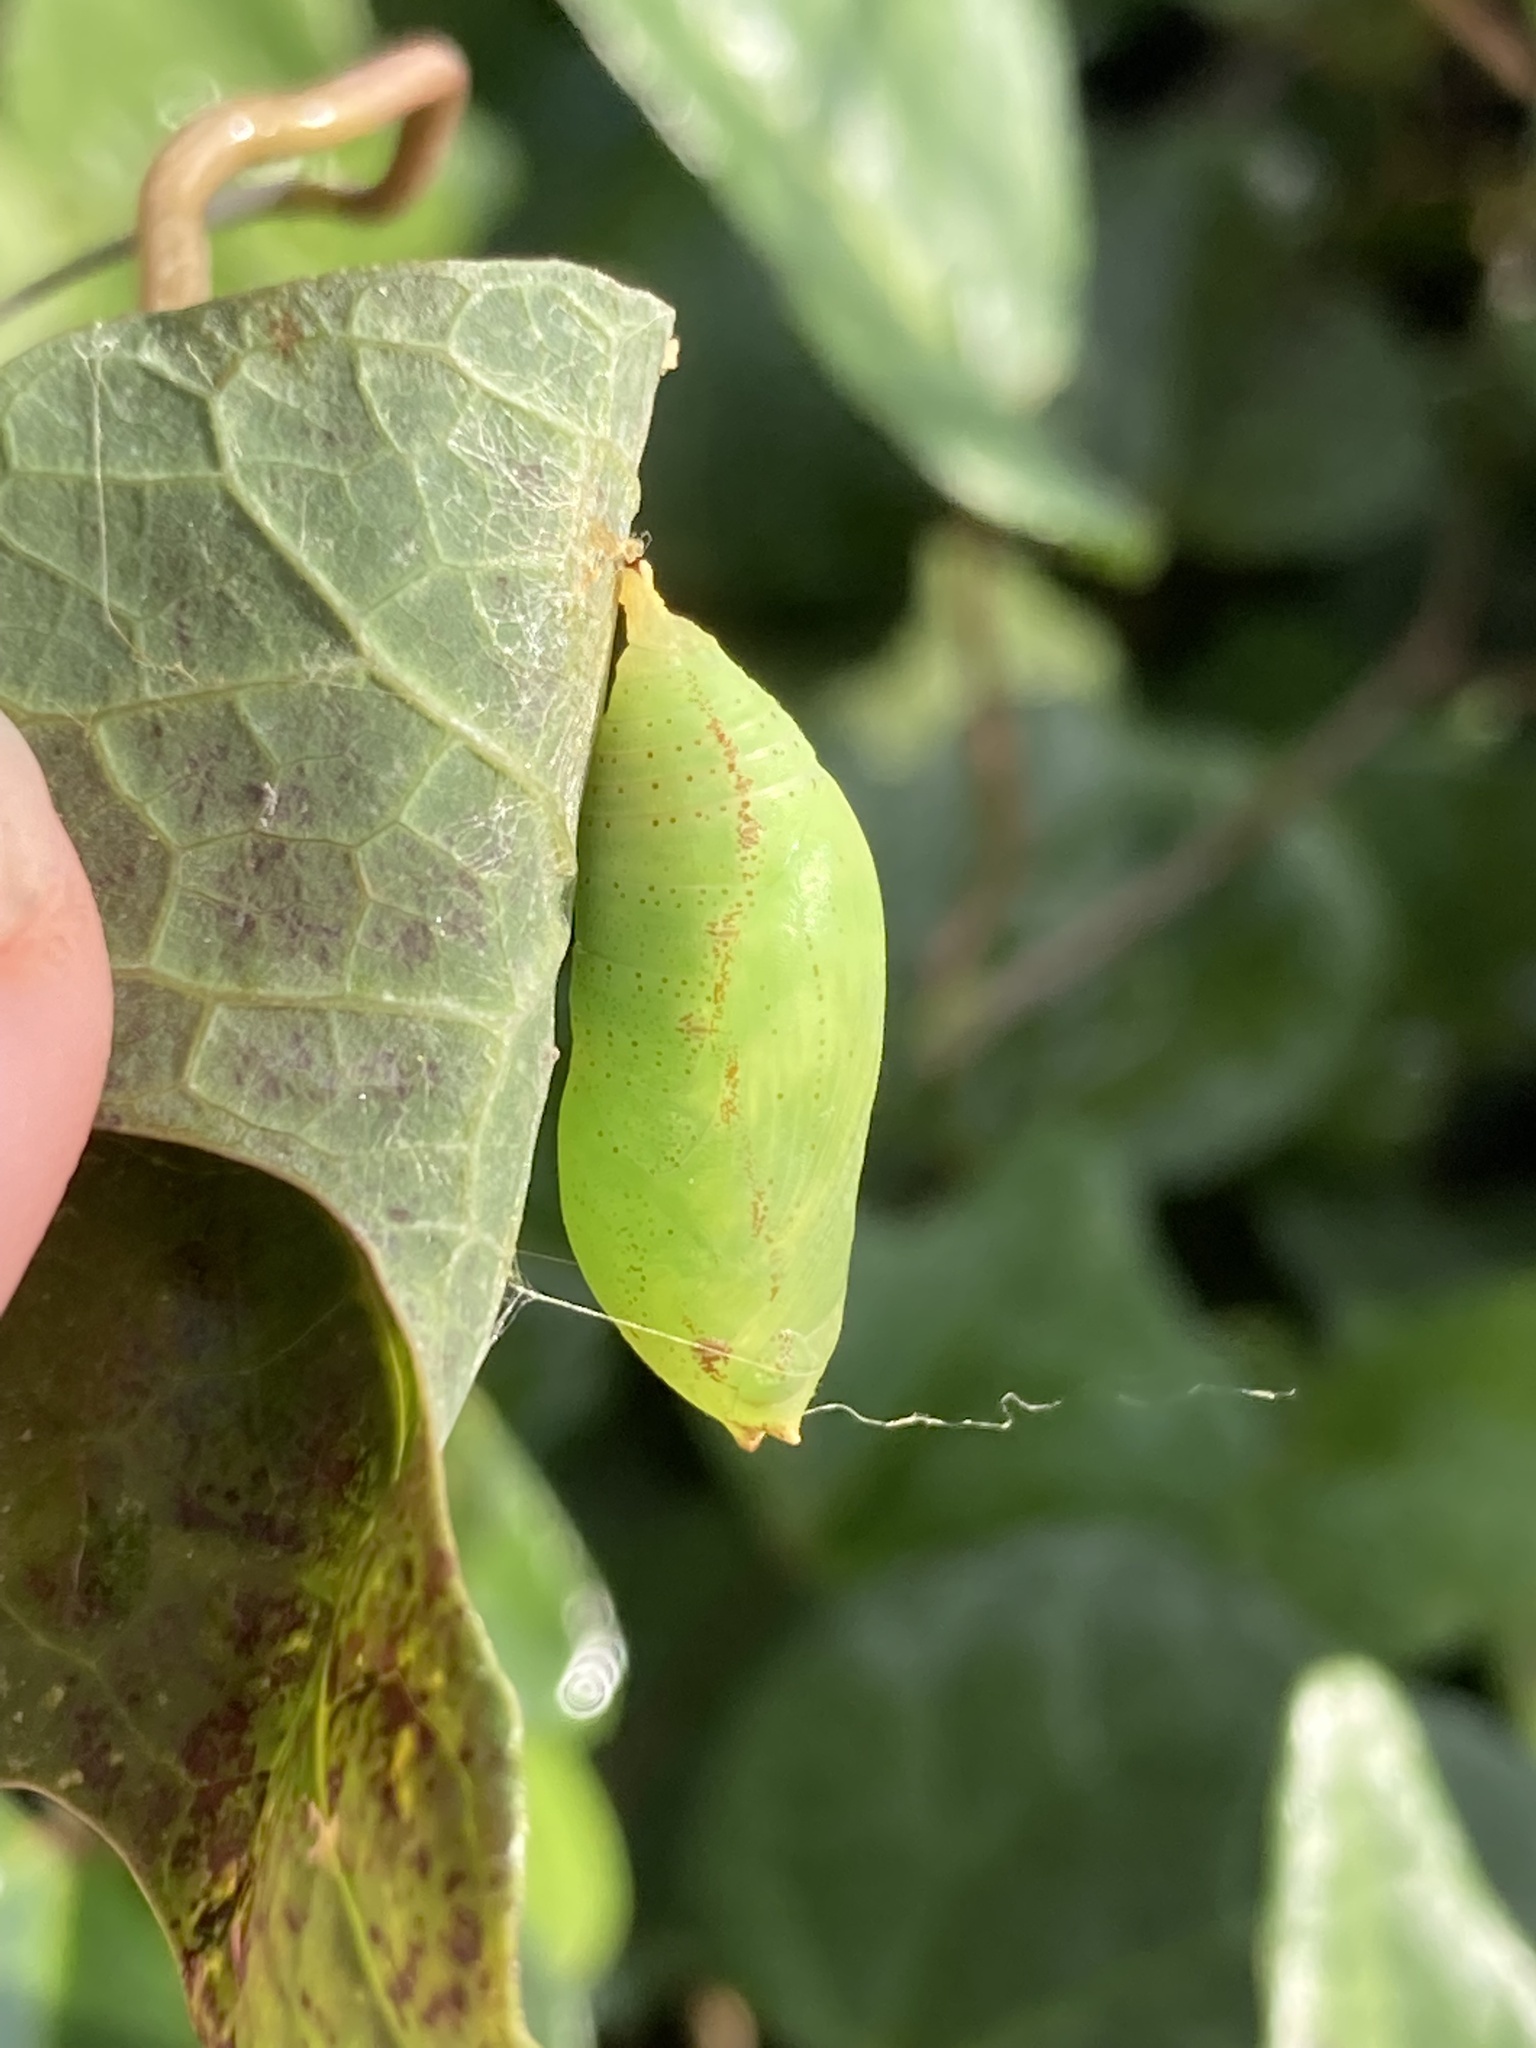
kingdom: Animalia
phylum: Arthropoda
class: Insecta
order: Lepidoptera
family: Hesperiidae
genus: Polygonus
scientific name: Polygonus leo
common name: Hammoch skipper
